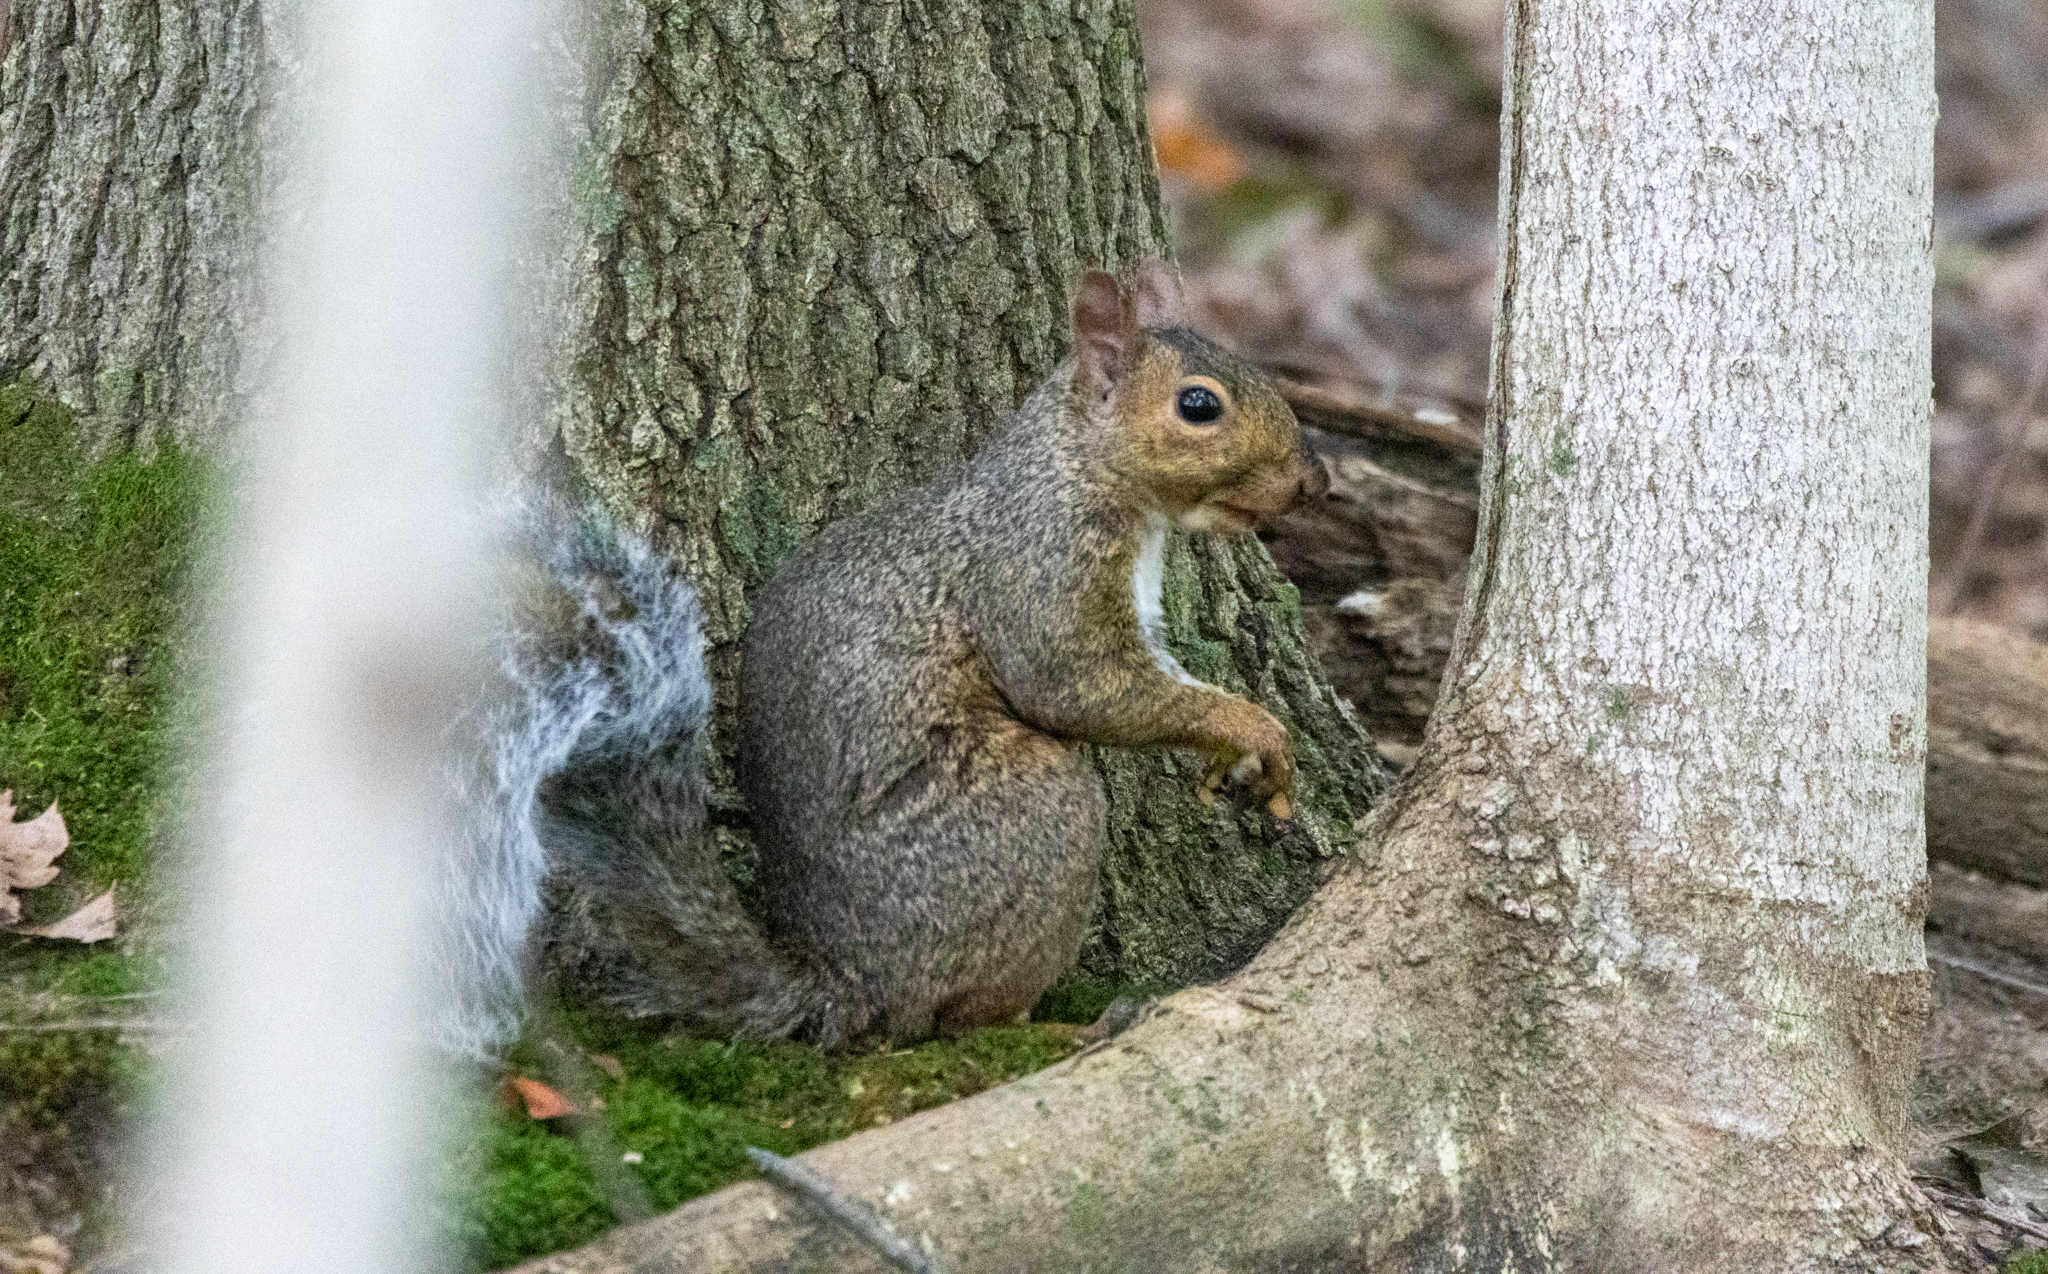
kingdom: Animalia
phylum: Chordata
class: Mammalia
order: Rodentia
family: Sciuridae
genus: Sciurus
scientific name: Sciurus carolinensis
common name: Eastern gray squirrel
